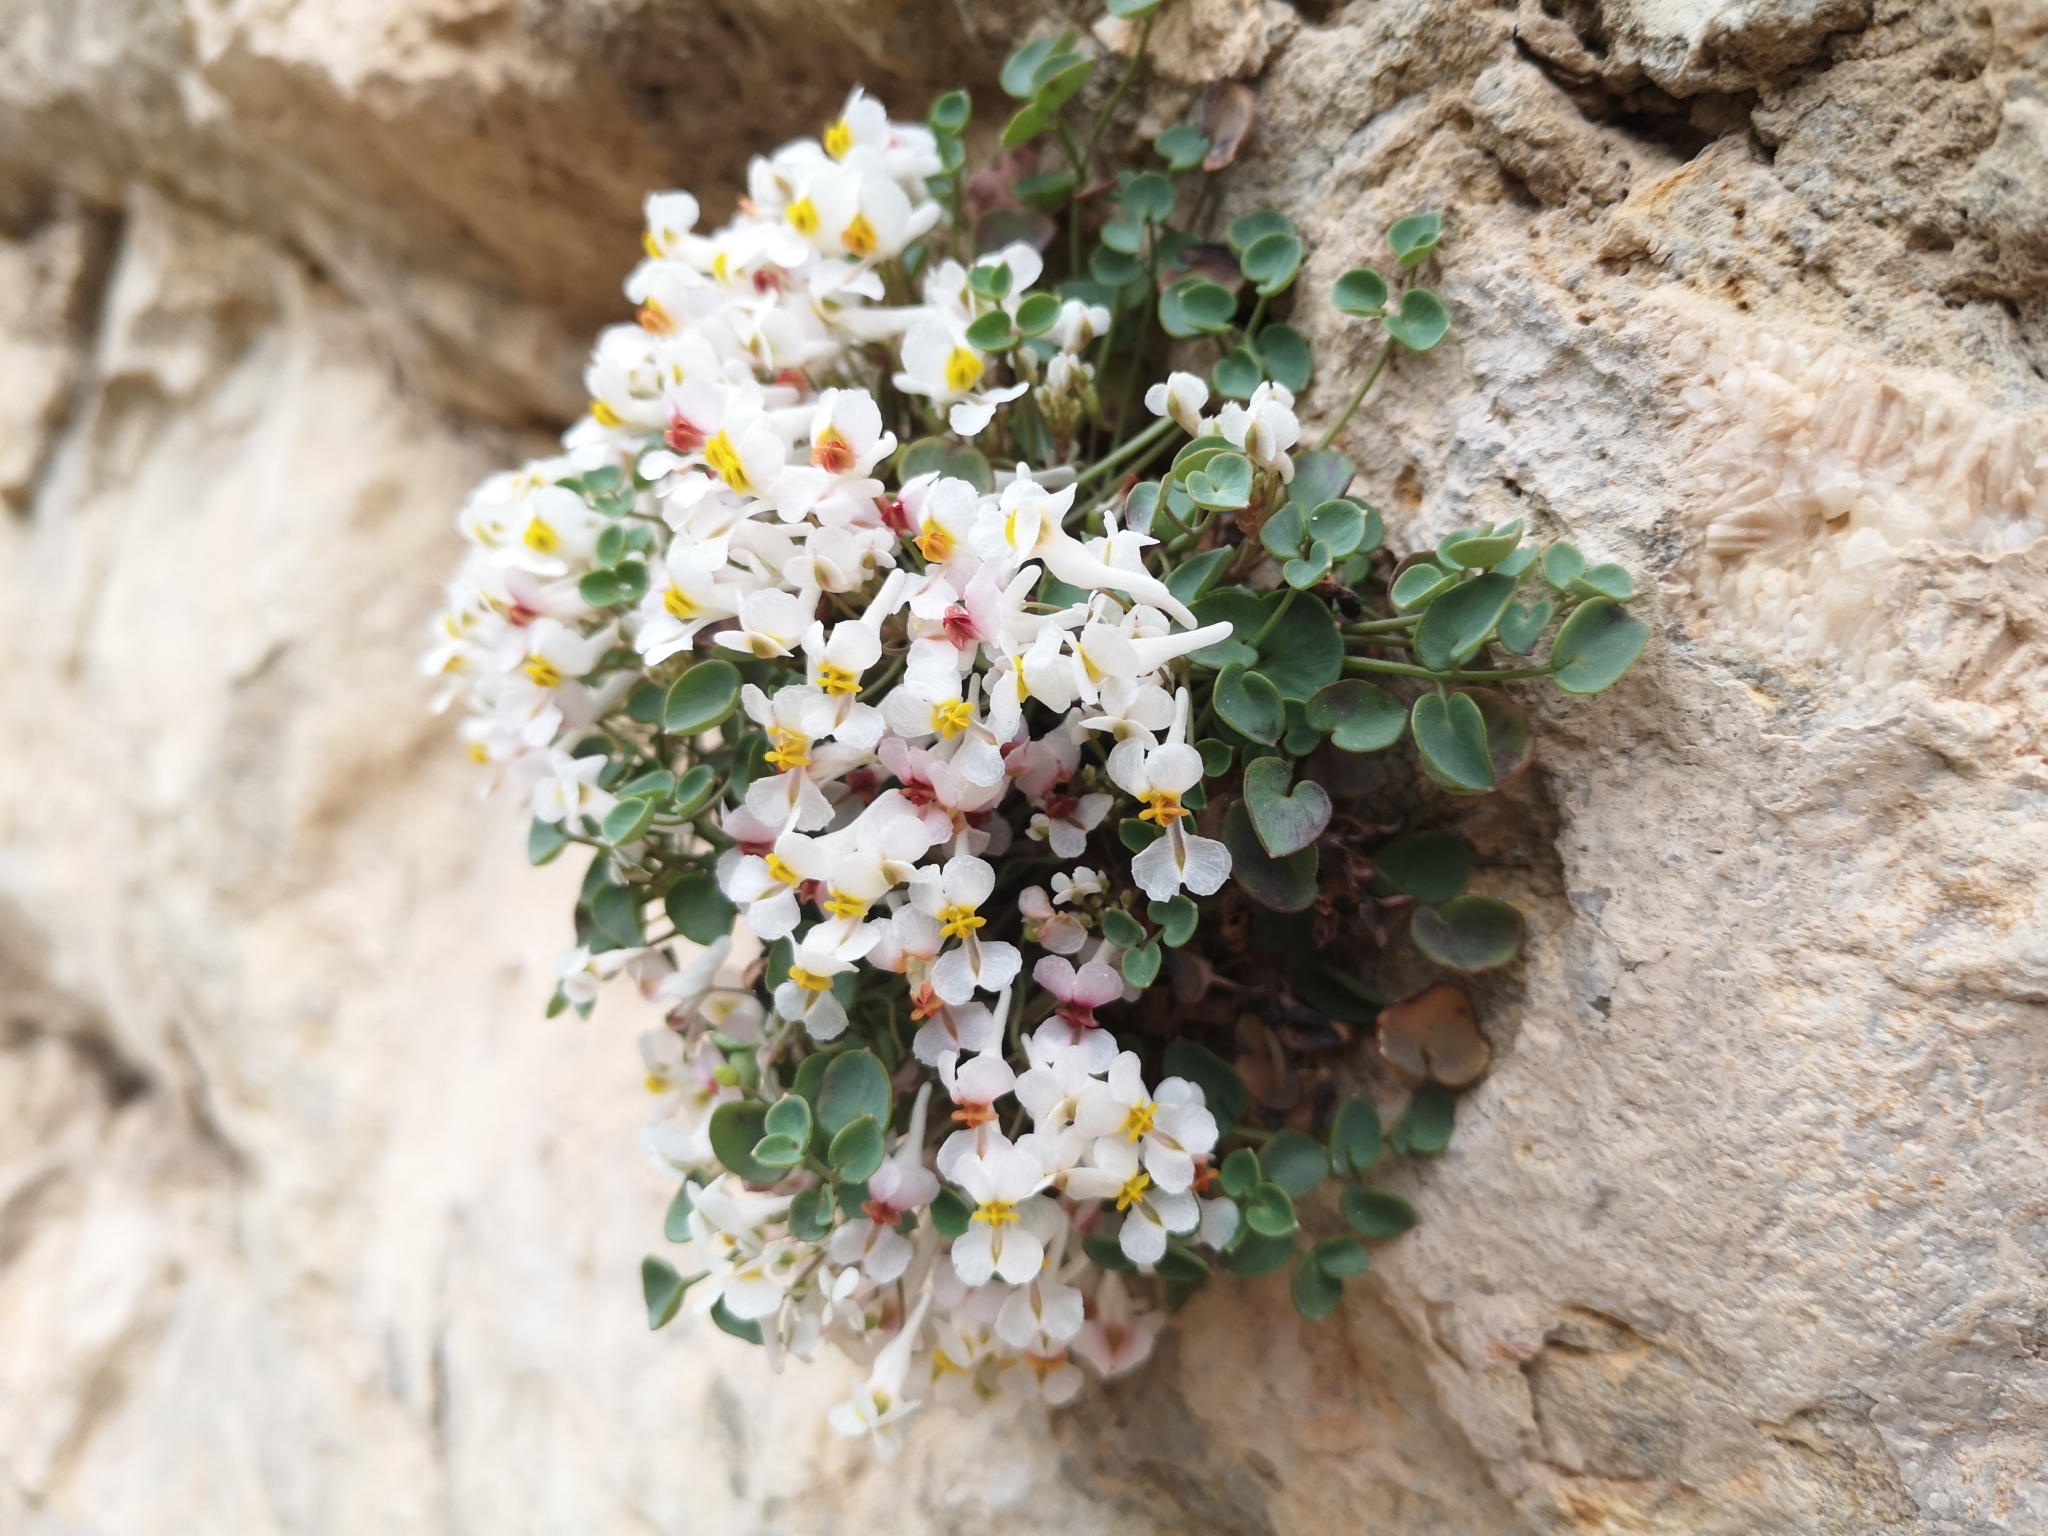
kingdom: Plantae
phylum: Tracheophyta
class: Magnoliopsida
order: Ranunculales
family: Papaveraceae
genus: Sarcocapnos
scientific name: Sarcocapnos enneaphylla
